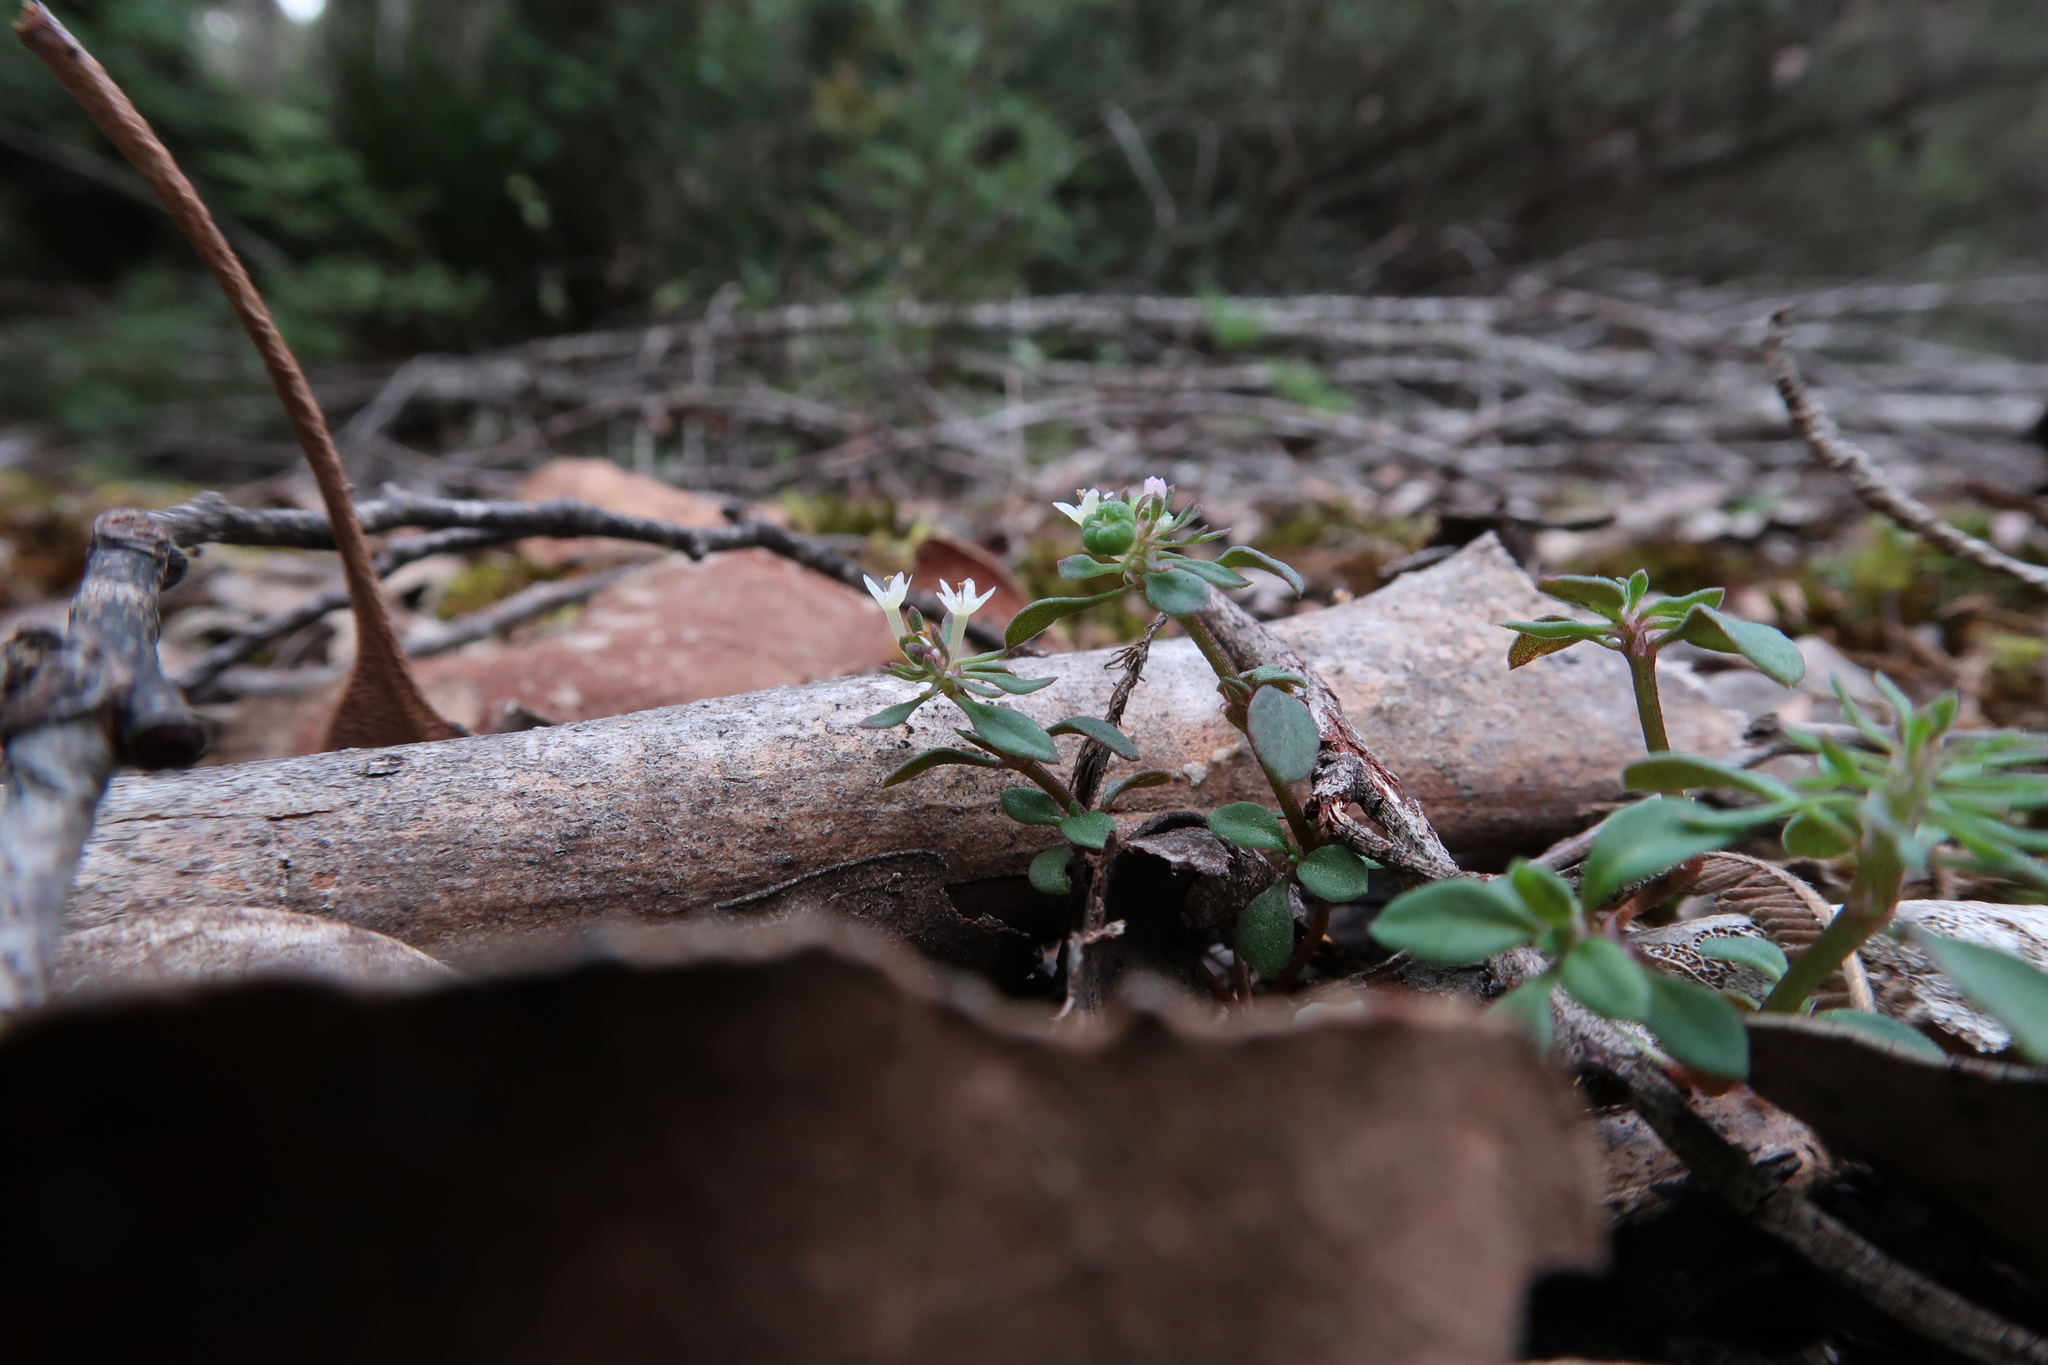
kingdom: Plantae
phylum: Tracheophyta
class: Magnoliopsida
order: Malpighiales
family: Phyllanthaceae
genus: Poranthera
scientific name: Poranthera microphylla
